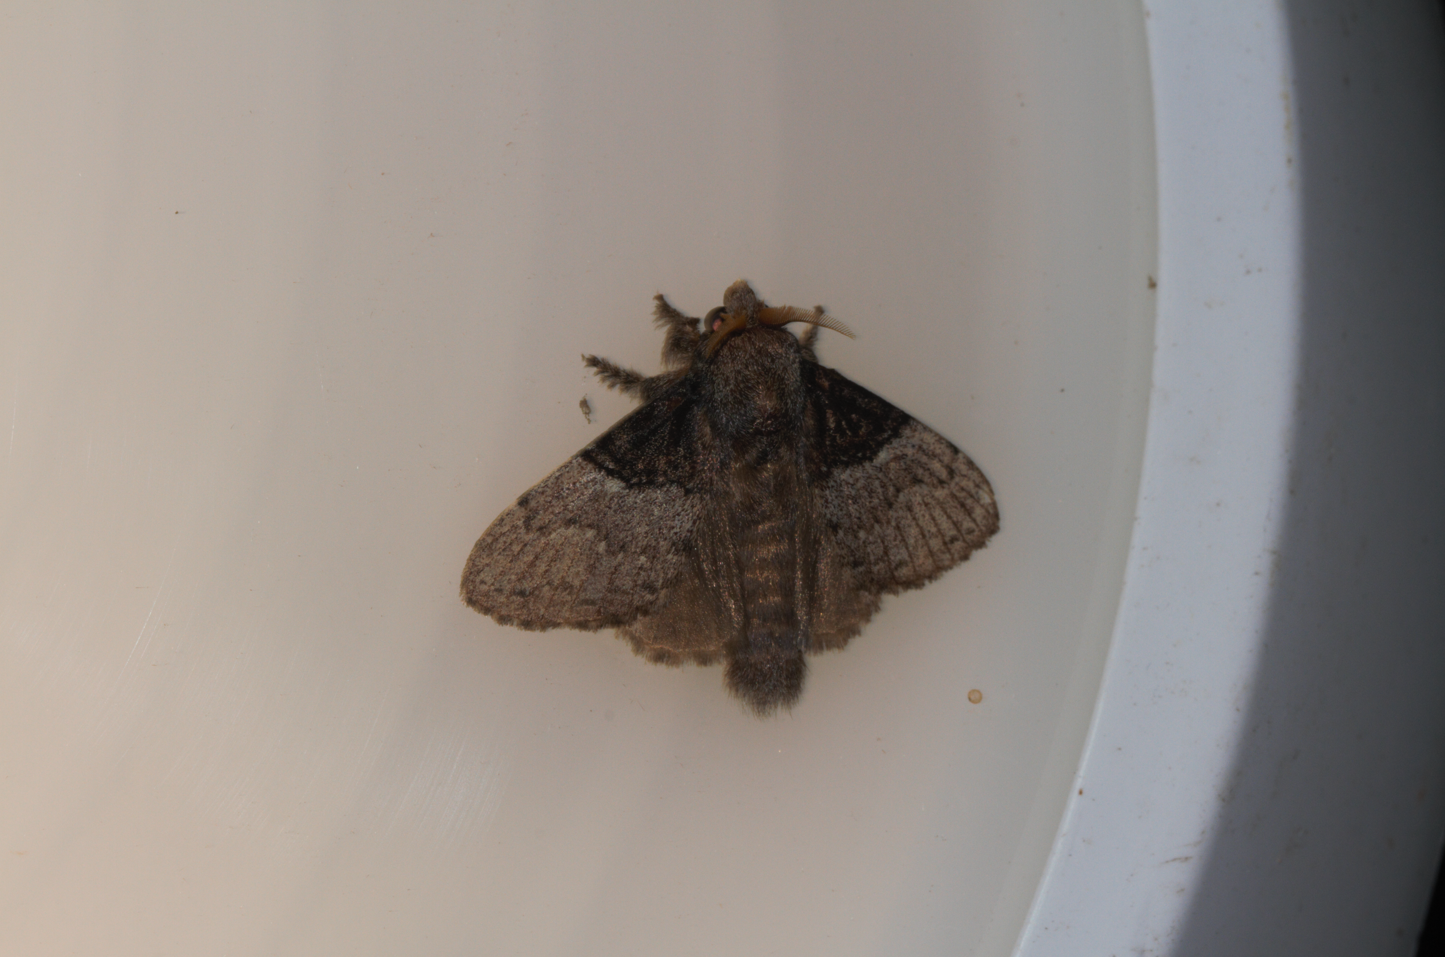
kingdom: Animalia
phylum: Arthropoda
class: Insecta
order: Lepidoptera
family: Lasiocampidae
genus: Euglyphis
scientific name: Euglyphis larunda
